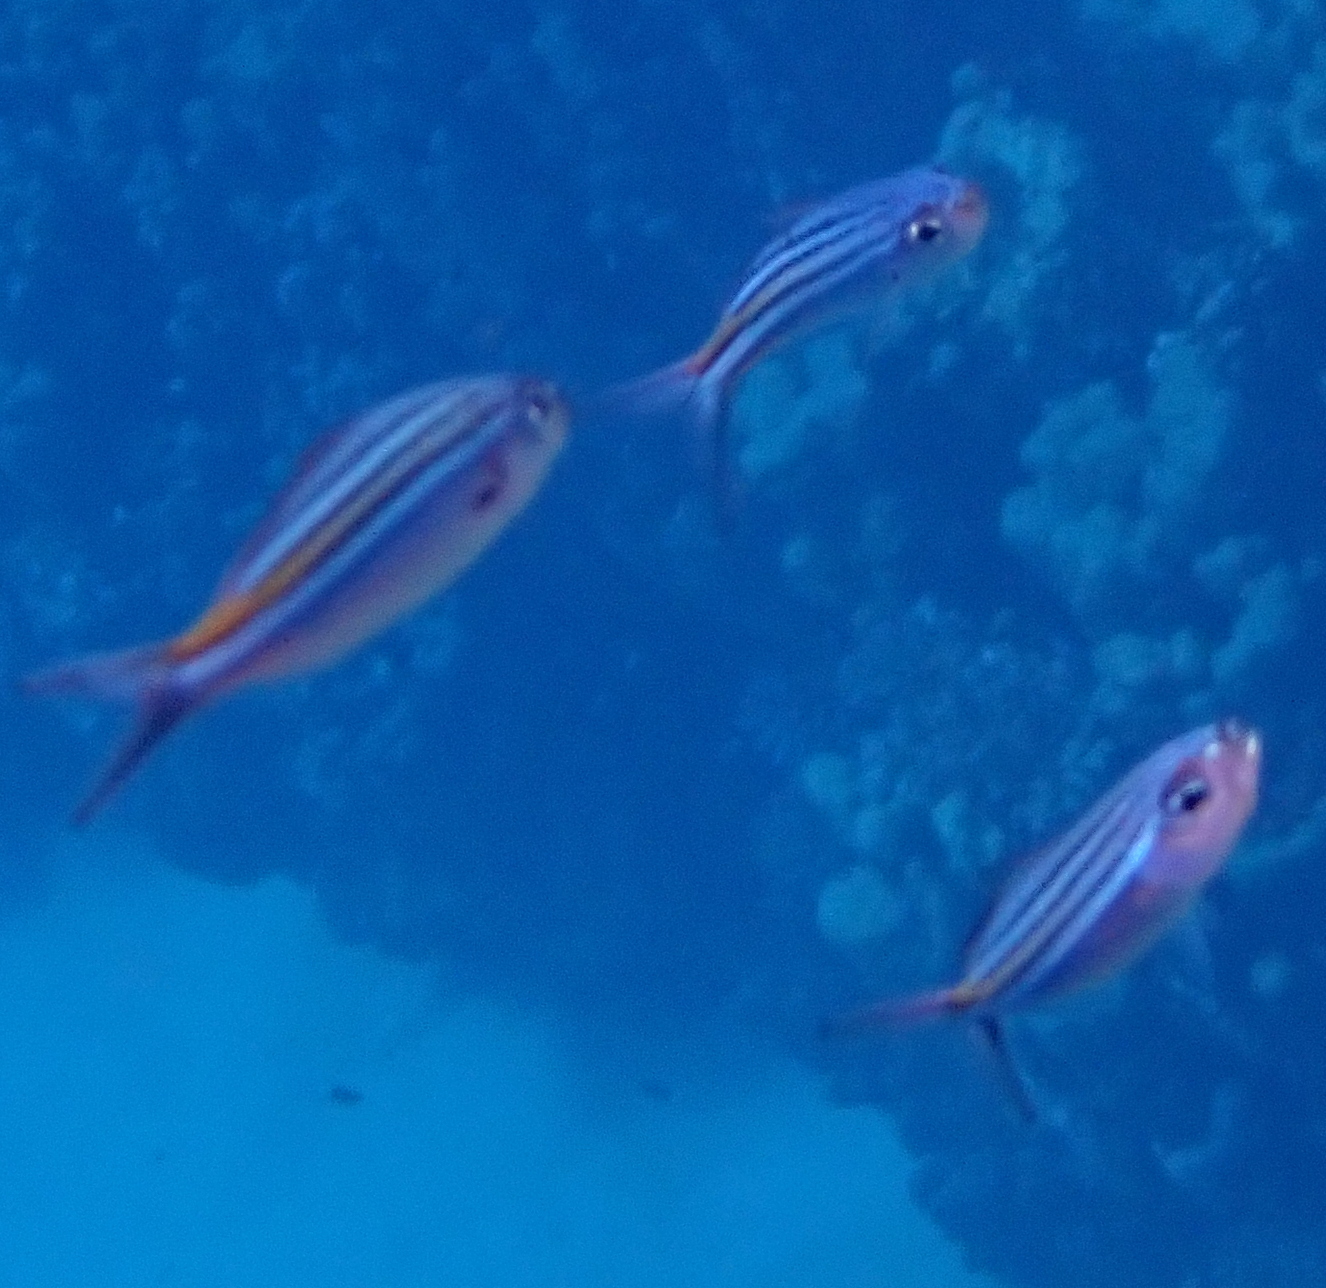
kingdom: Animalia
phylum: Chordata
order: Perciformes
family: Caesionidae
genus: Caesio
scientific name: Caesio striata
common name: Striated fusilier
